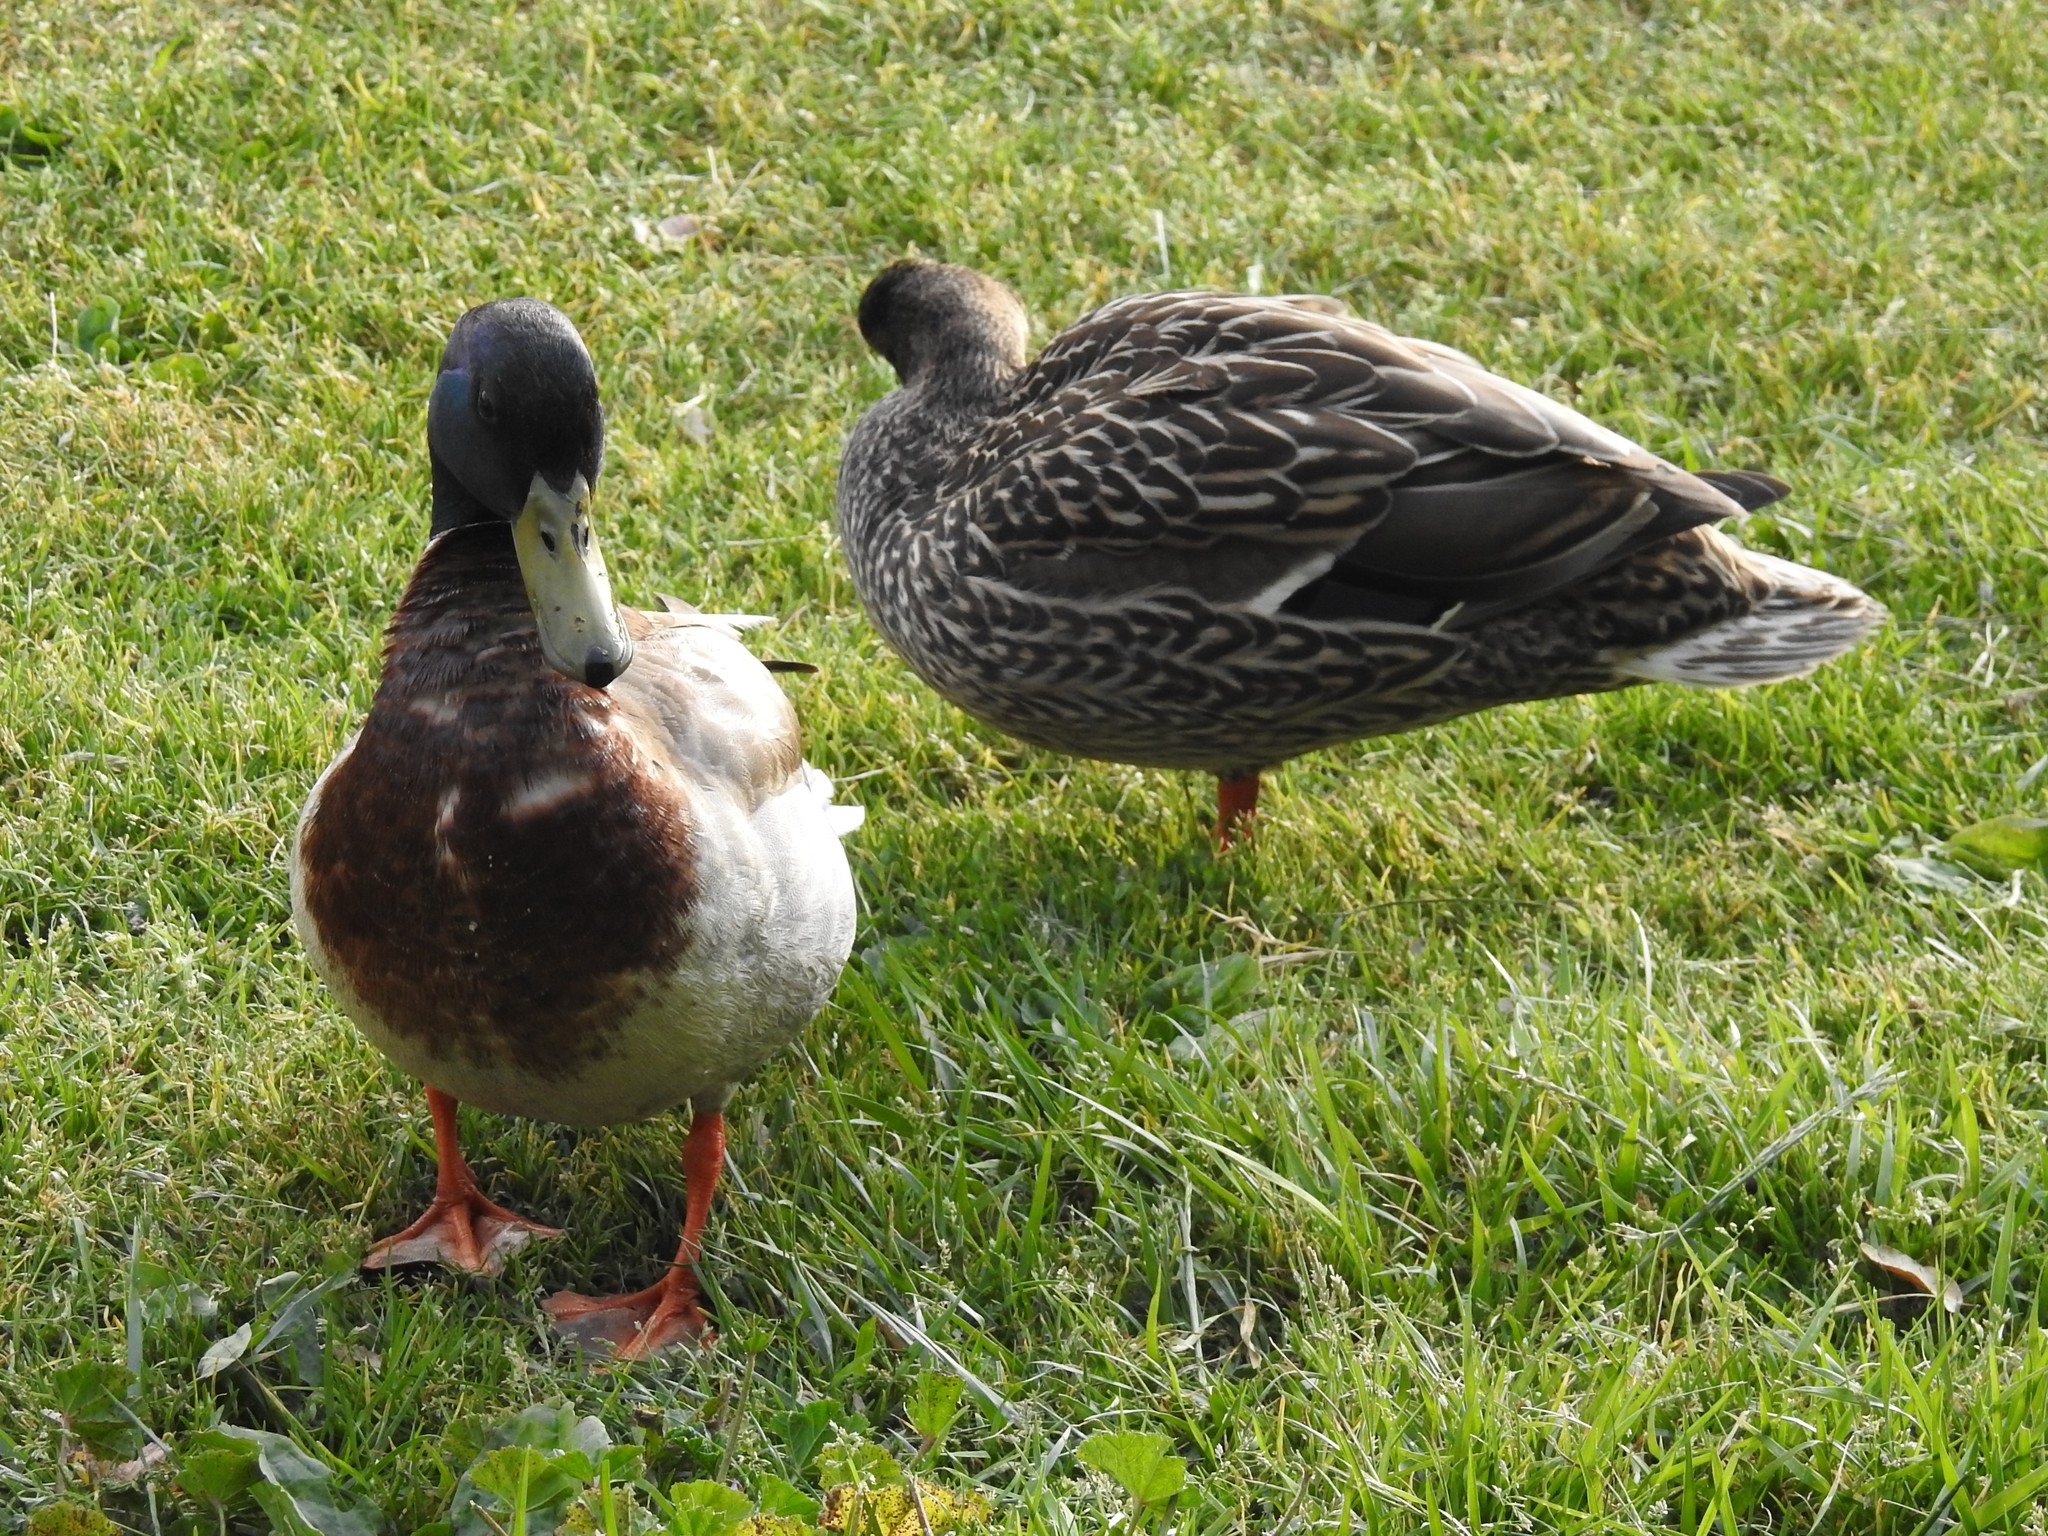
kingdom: Animalia
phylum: Chordata
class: Aves
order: Anseriformes
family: Anatidae
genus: Anas
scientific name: Anas platyrhynchos
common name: Mallard
